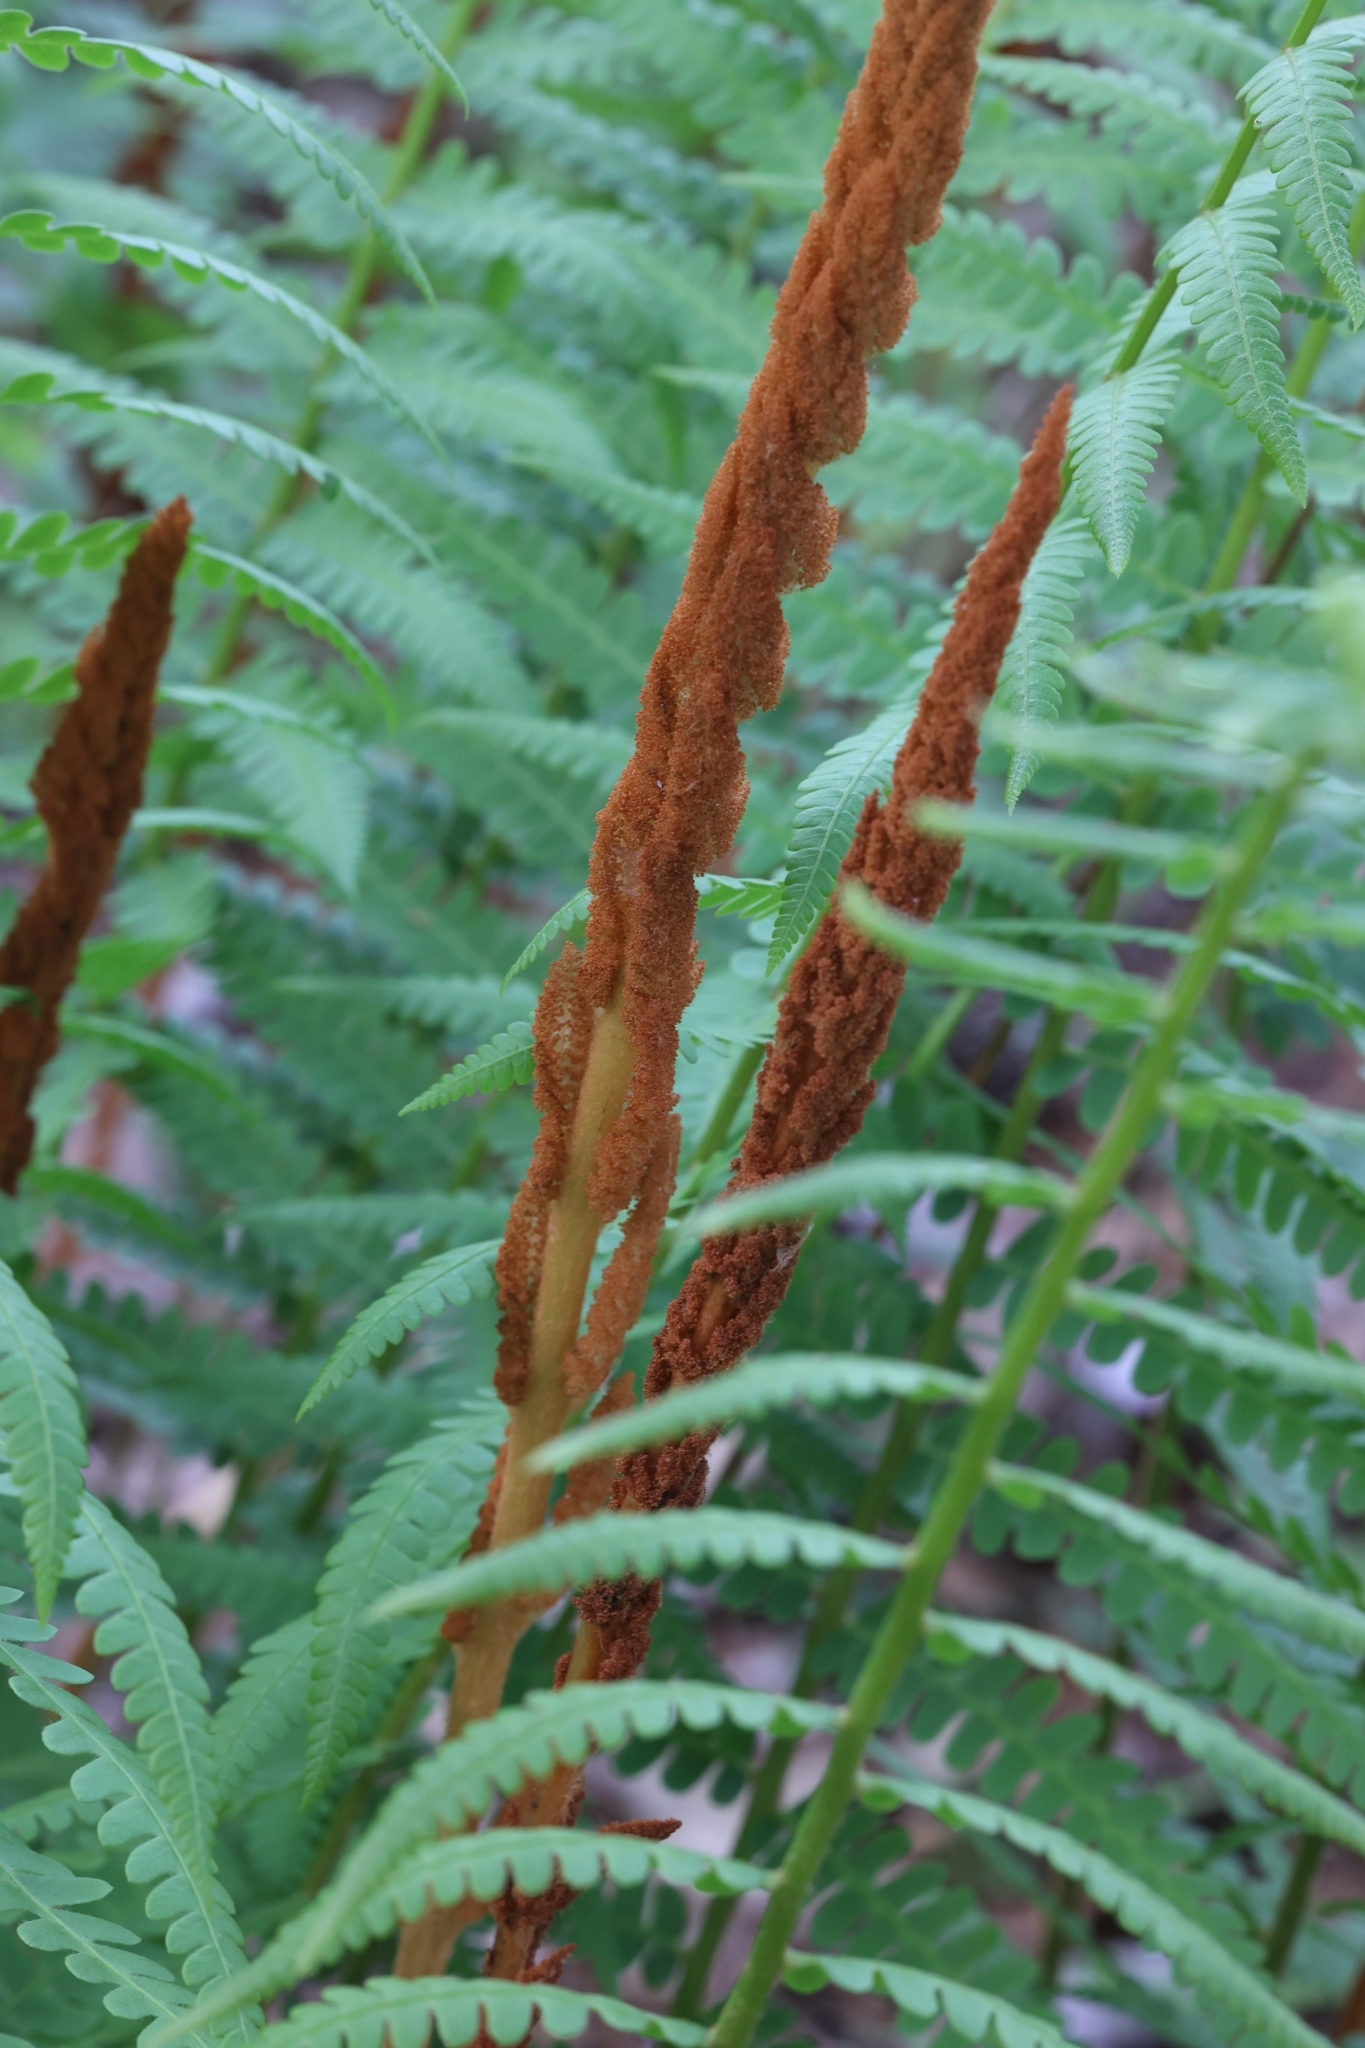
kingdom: Plantae
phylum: Tracheophyta
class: Polypodiopsida
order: Osmundales
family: Osmundaceae
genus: Osmundastrum
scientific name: Osmundastrum cinnamomeum
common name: Cinnamon fern
